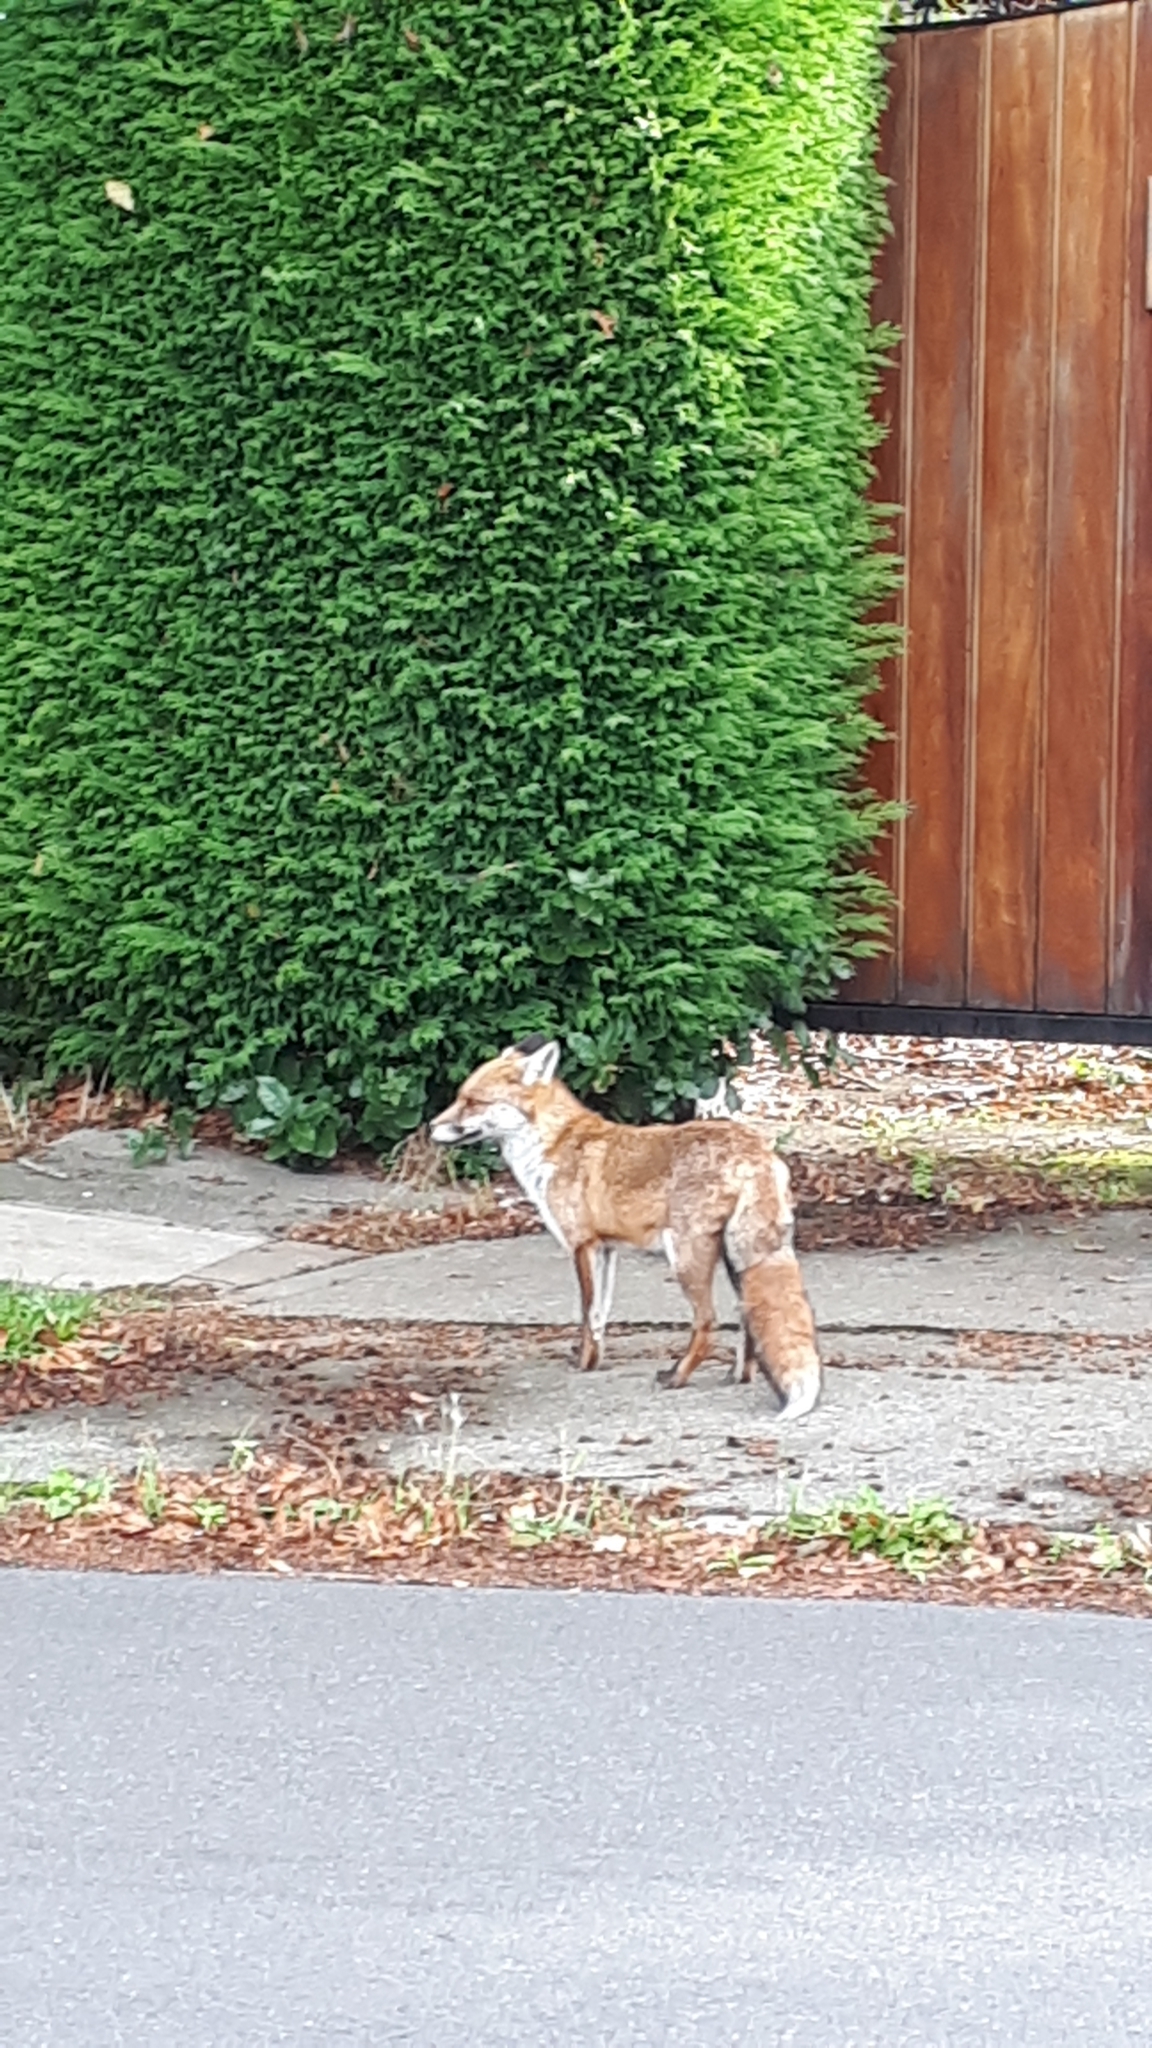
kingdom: Animalia
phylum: Chordata
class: Mammalia
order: Carnivora
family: Canidae
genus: Vulpes
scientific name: Vulpes vulpes
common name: Red fox
